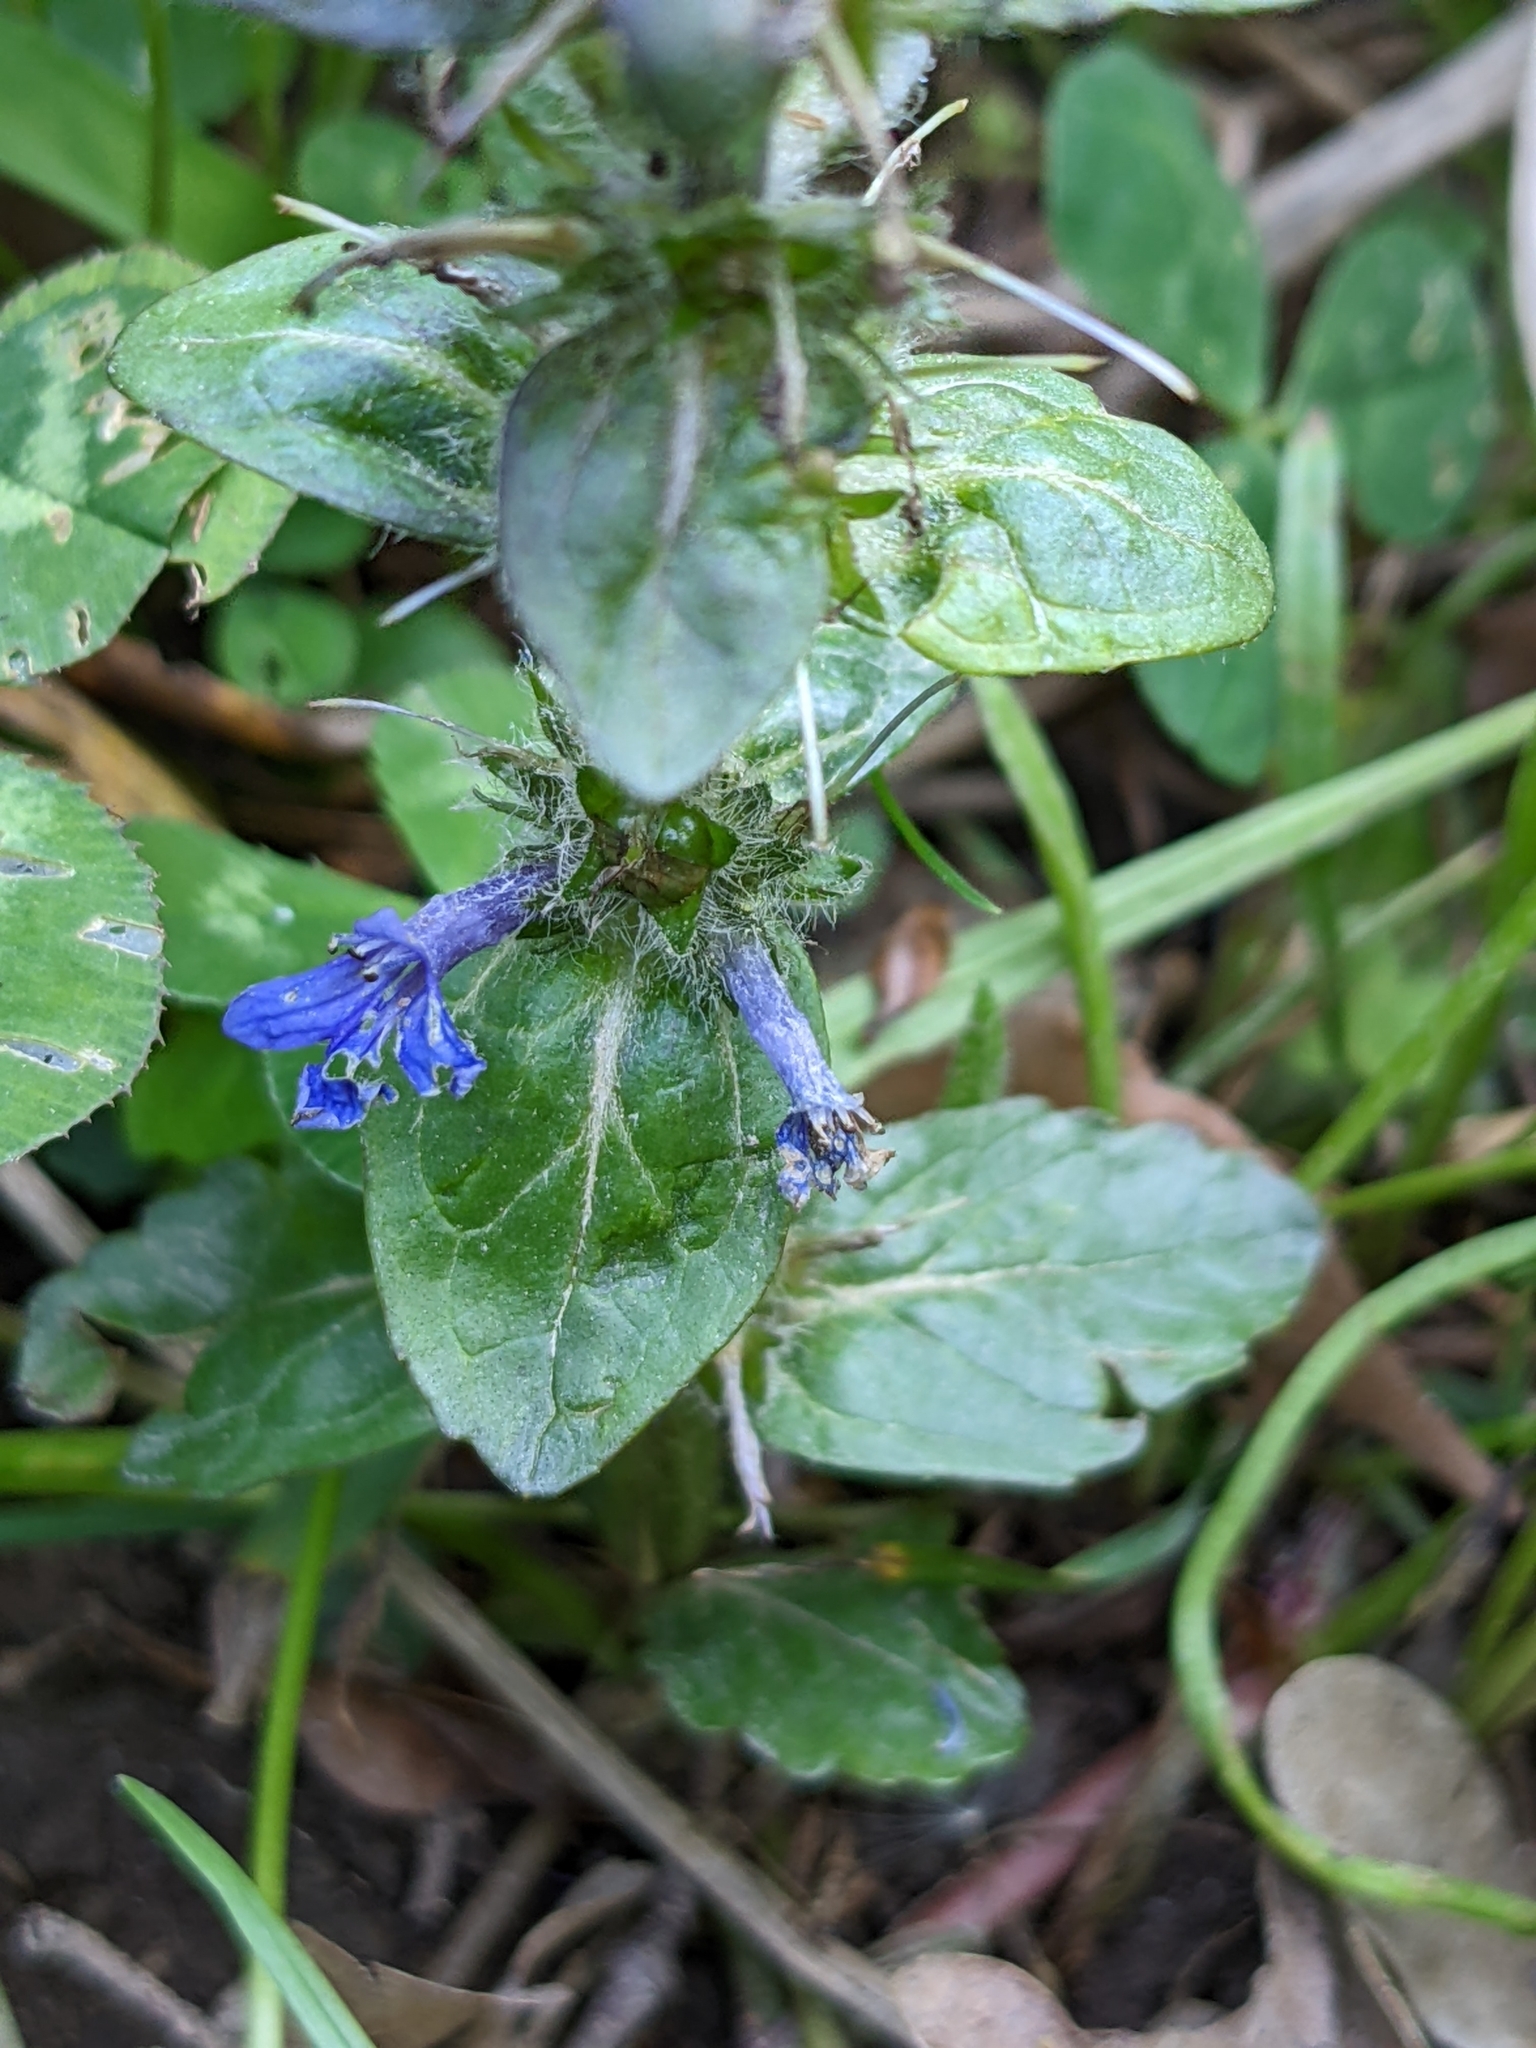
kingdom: Plantae
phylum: Tracheophyta
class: Magnoliopsida
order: Lamiales
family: Lamiaceae
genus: Ajuga
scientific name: Ajuga reptans
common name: Bugle
